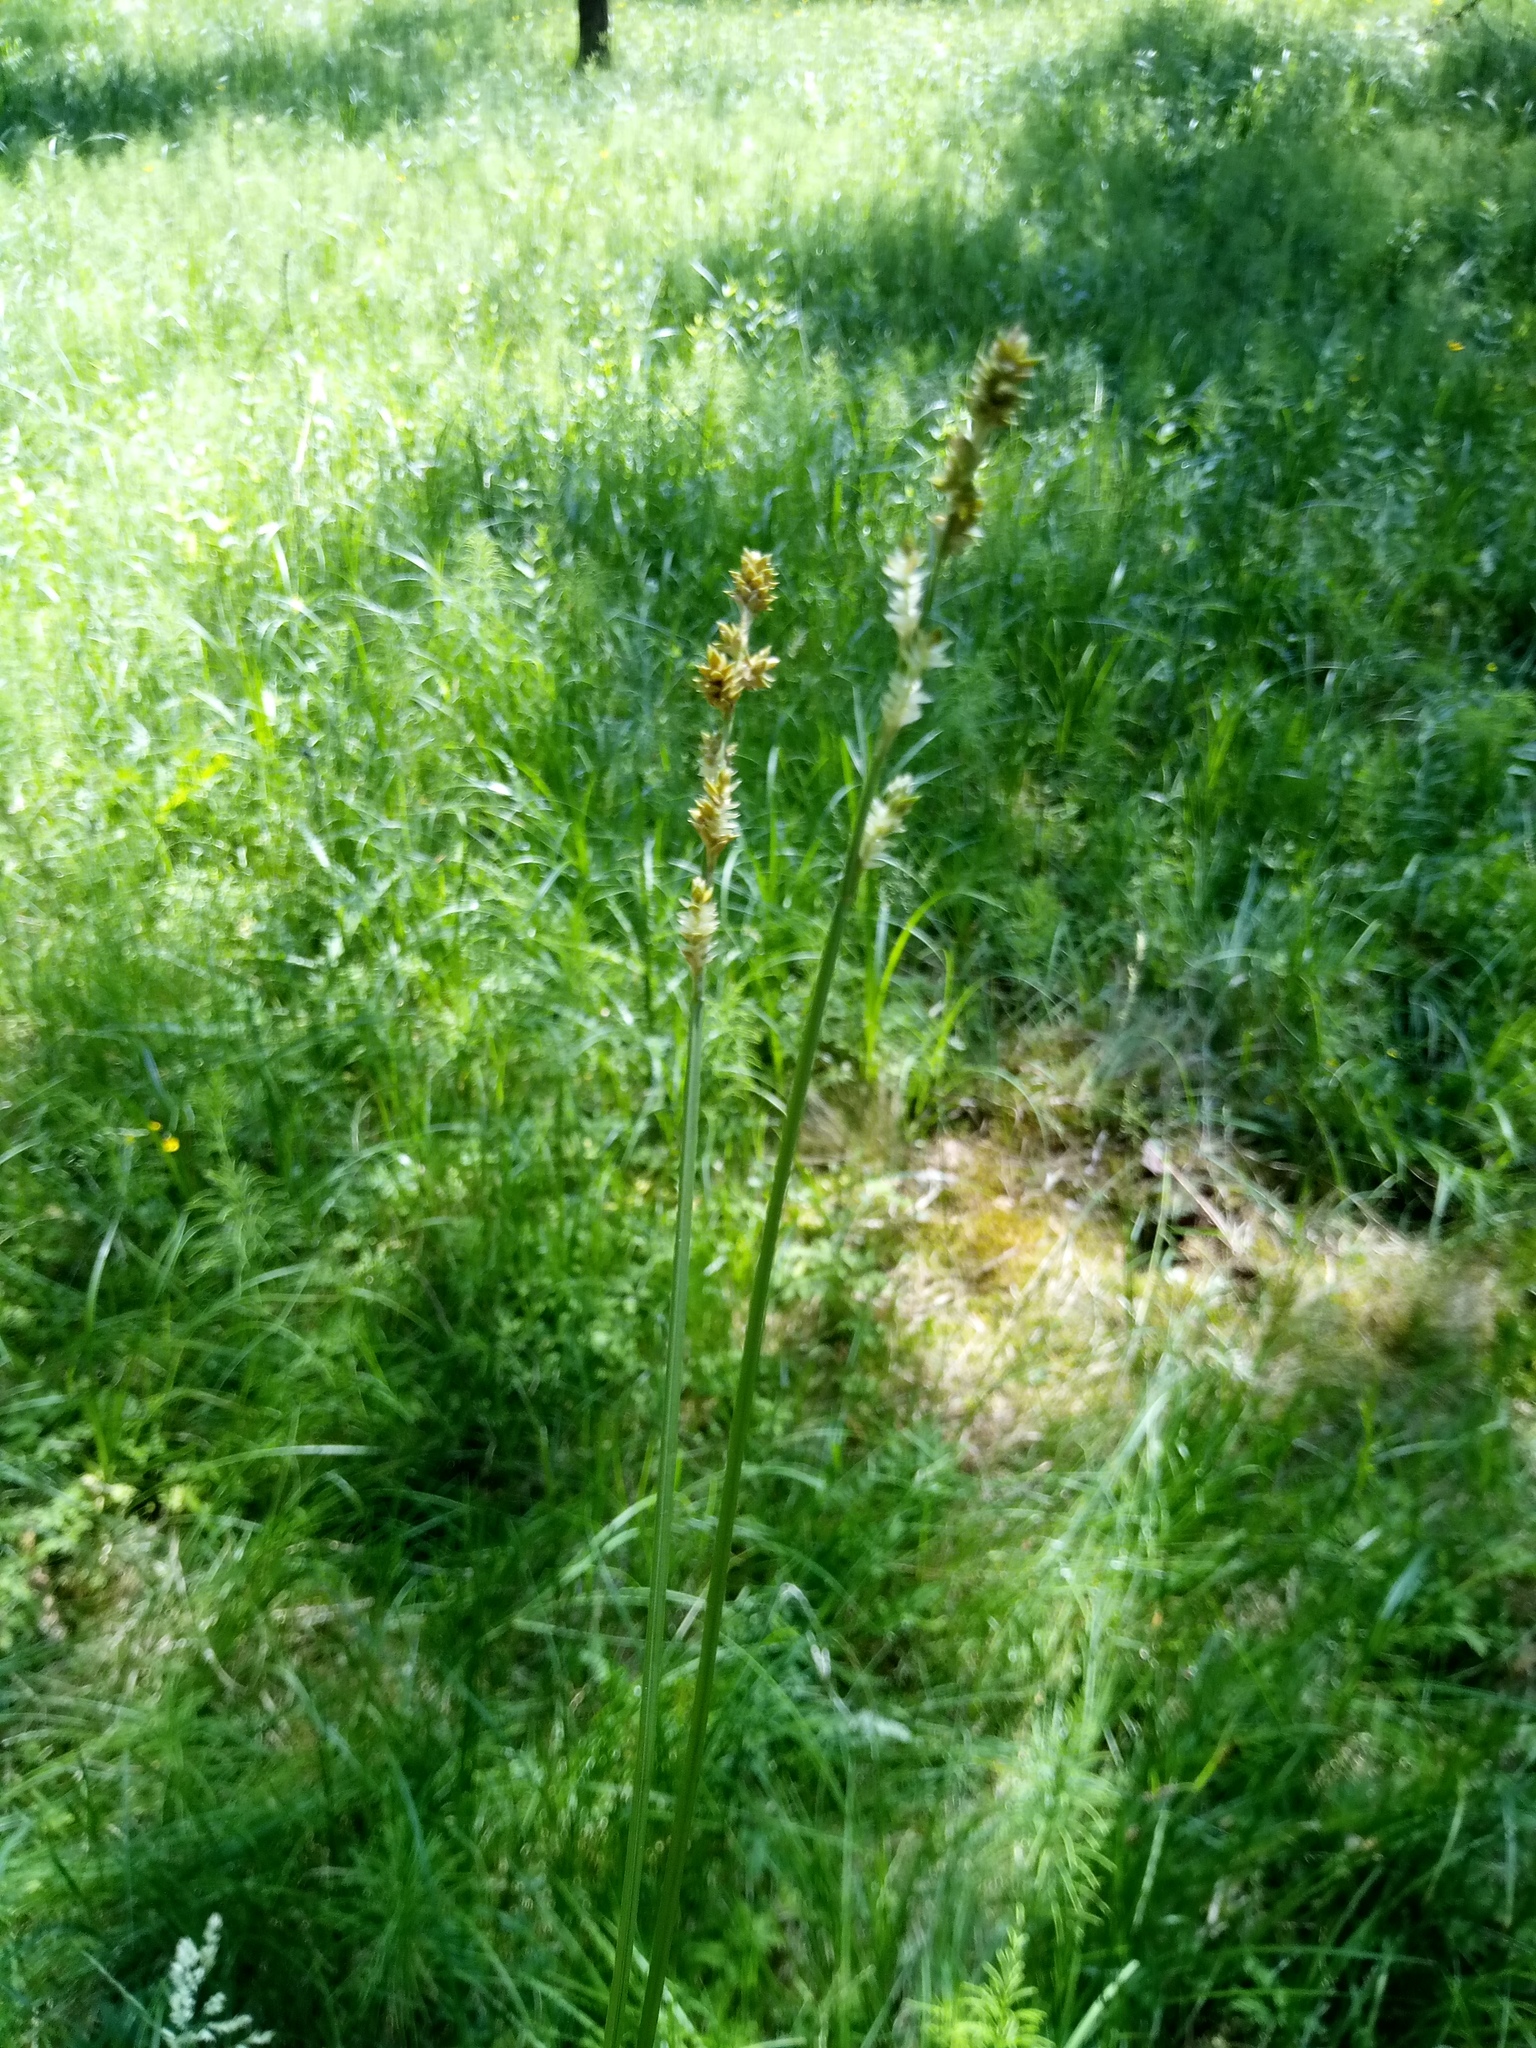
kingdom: Plantae
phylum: Tracheophyta
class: Liliopsida
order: Poales
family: Cyperaceae
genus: Carex
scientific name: Carex canescens
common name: White sedge
